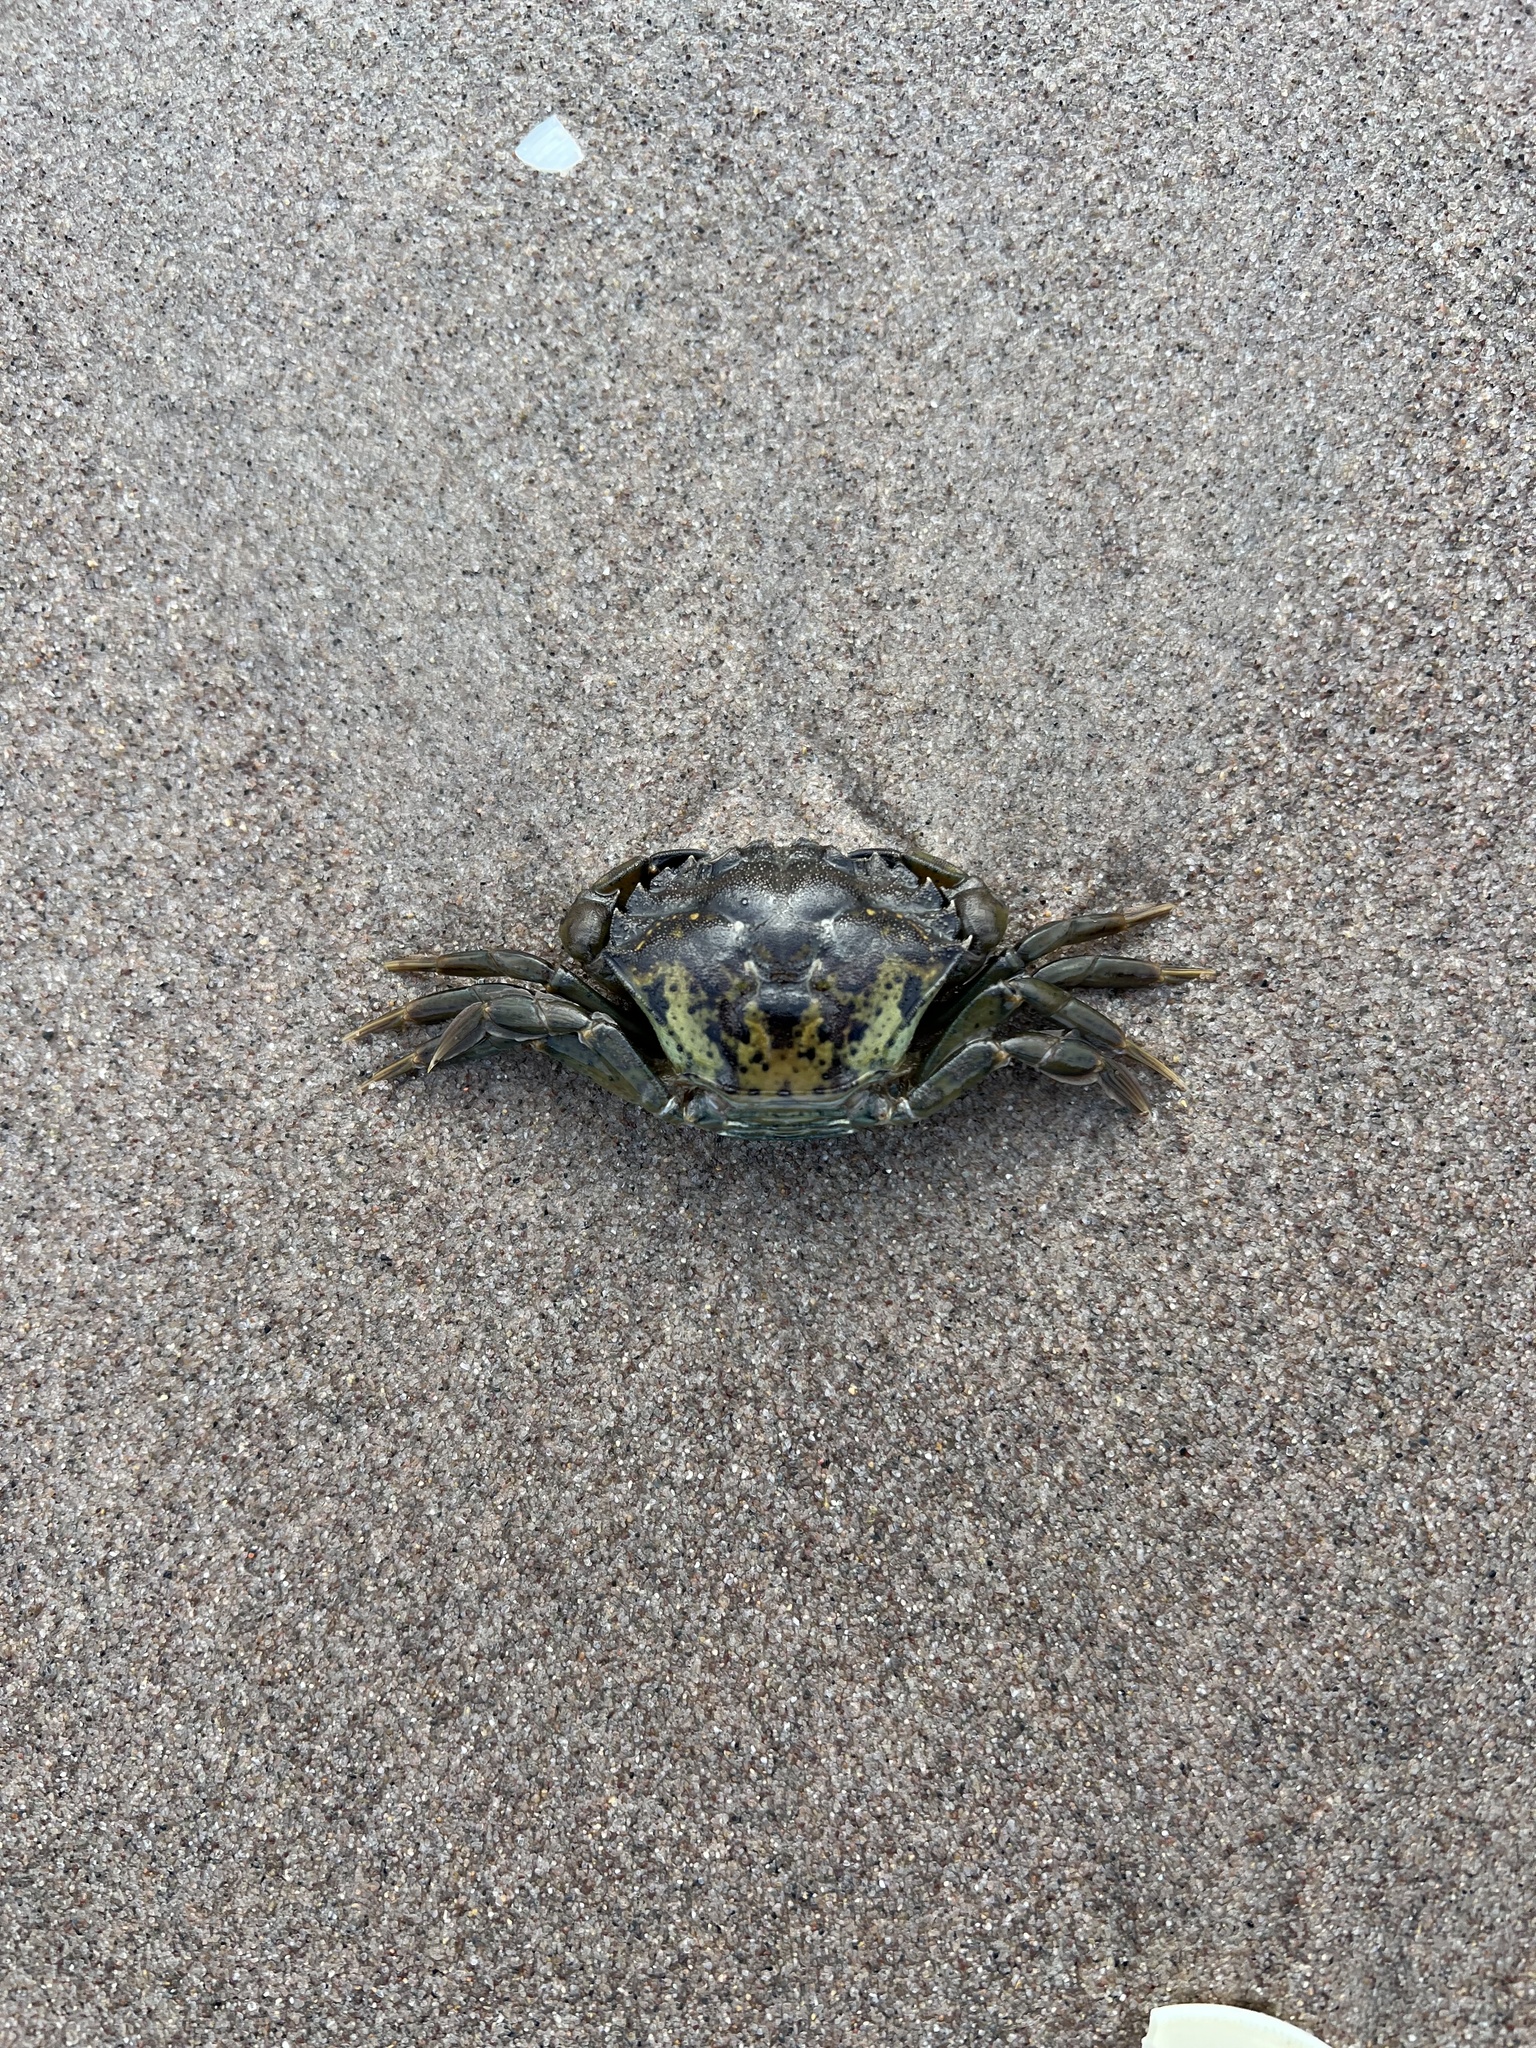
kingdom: Animalia
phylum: Arthropoda
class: Malacostraca
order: Decapoda
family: Carcinidae
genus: Carcinus
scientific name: Carcinus maenas
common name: European green crab
